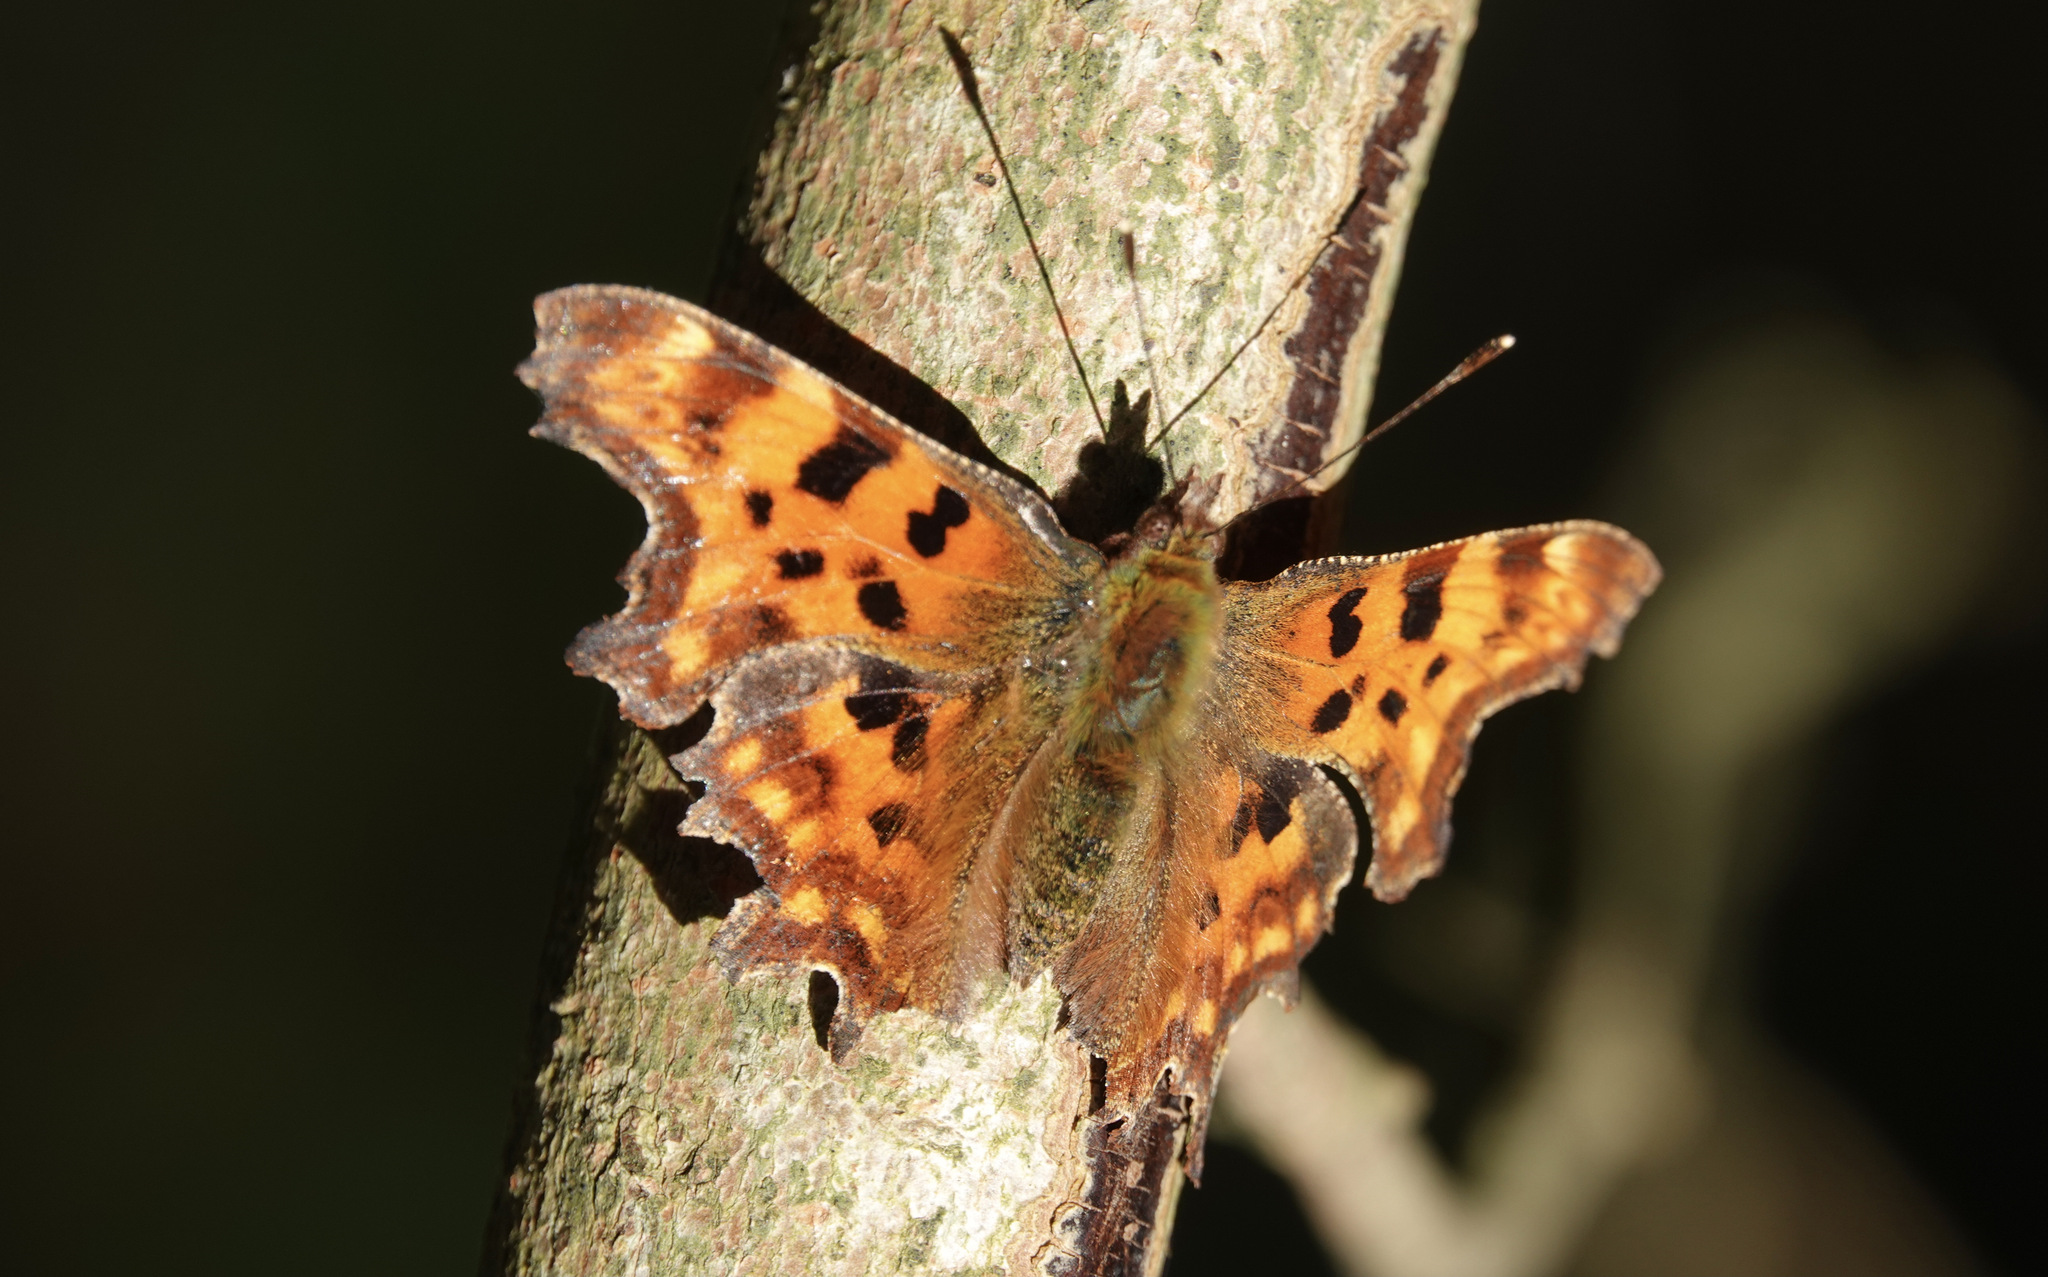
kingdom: Animalia
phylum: Arthropoda
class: Insecta
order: Lepidoptera
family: Nymphalidae
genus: Polygonia
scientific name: Polygonia c-album
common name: Comma
